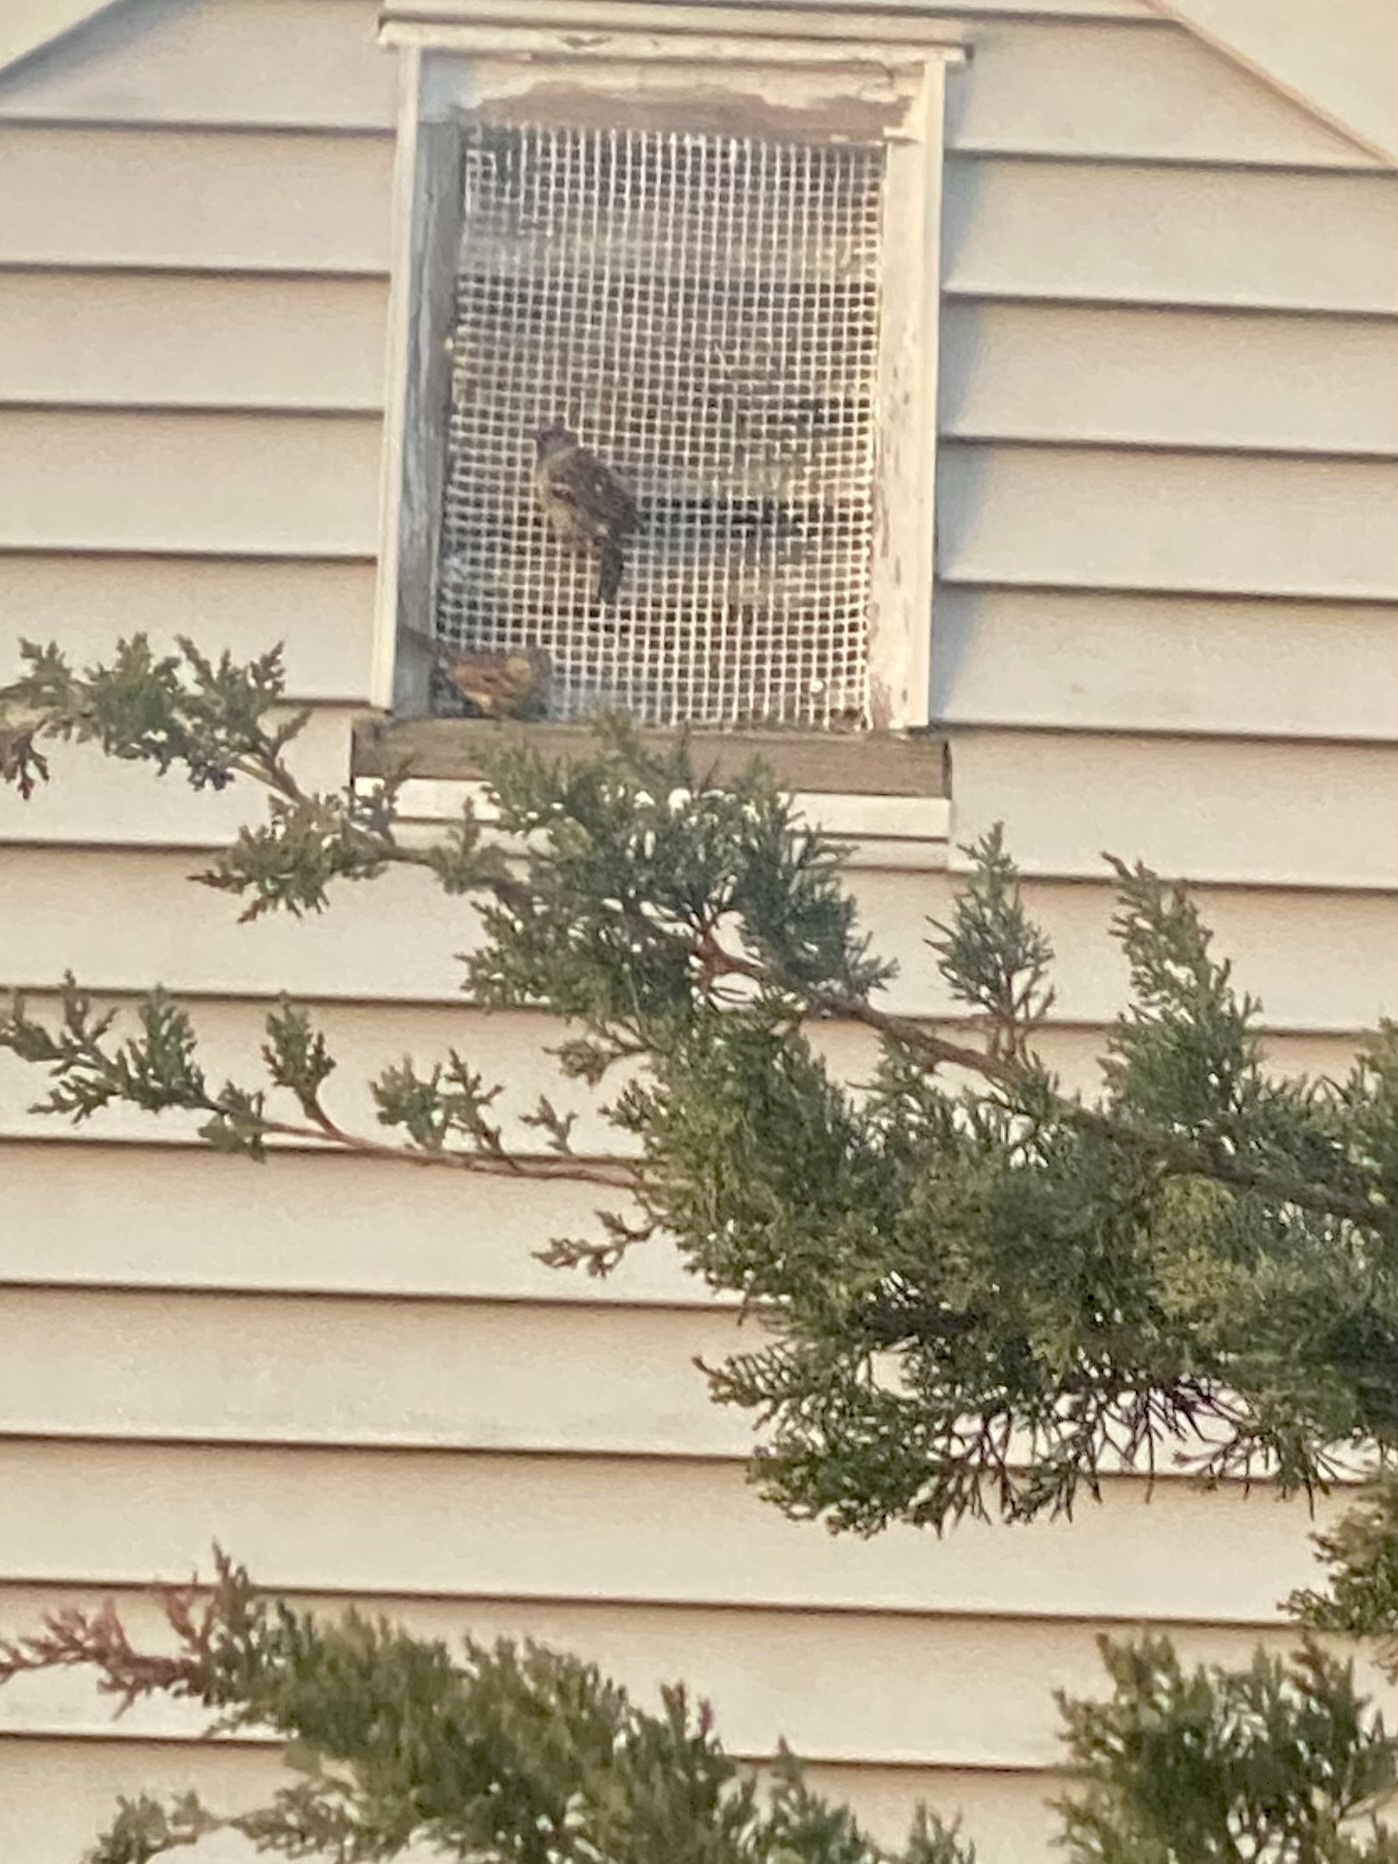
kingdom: Animalia
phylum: Chordata
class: Aves
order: Passeriformes
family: Passeridae
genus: Passer
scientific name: Passer domesticus
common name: House sparrow
